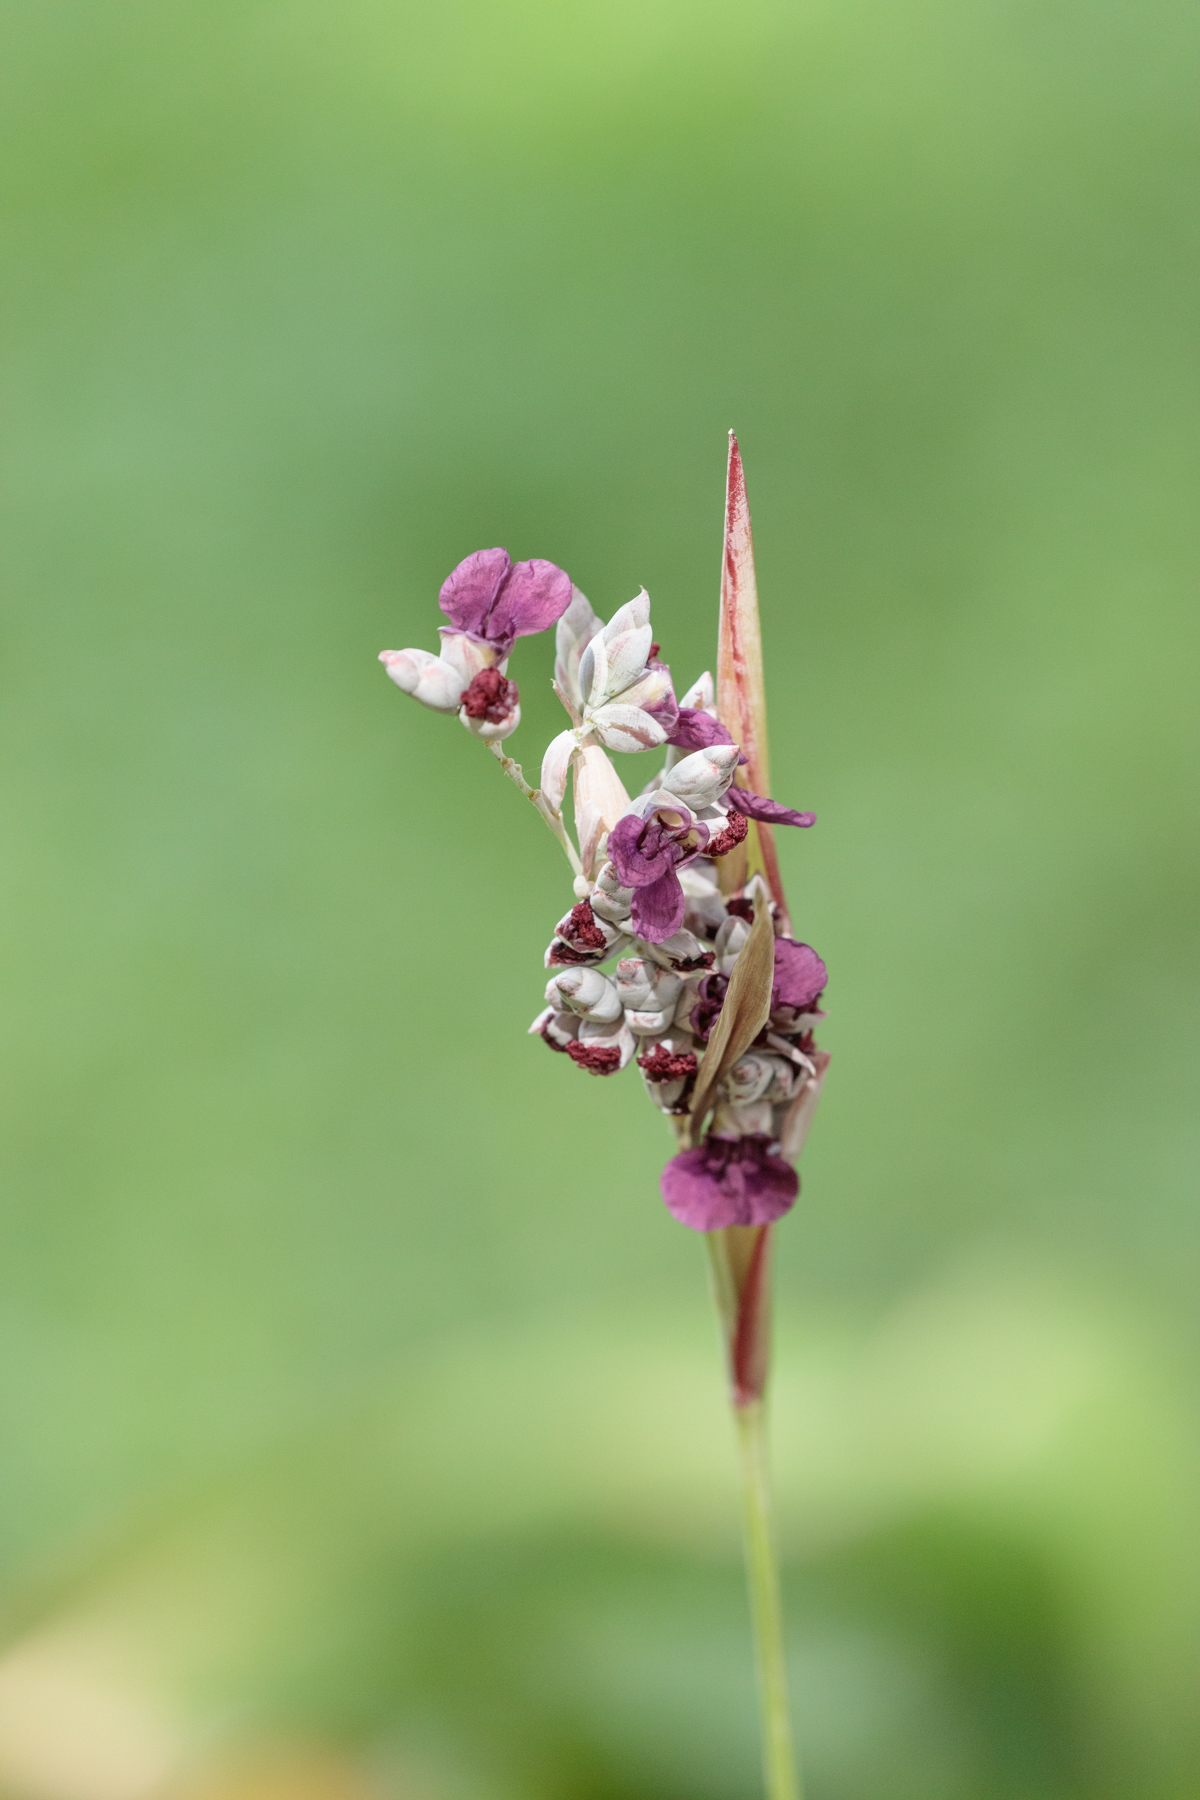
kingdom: Plantae
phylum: Tracheophyta
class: Liliopsida
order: Zingiberales
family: Marantaceae
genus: Thalia
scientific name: Thalia dealbata
